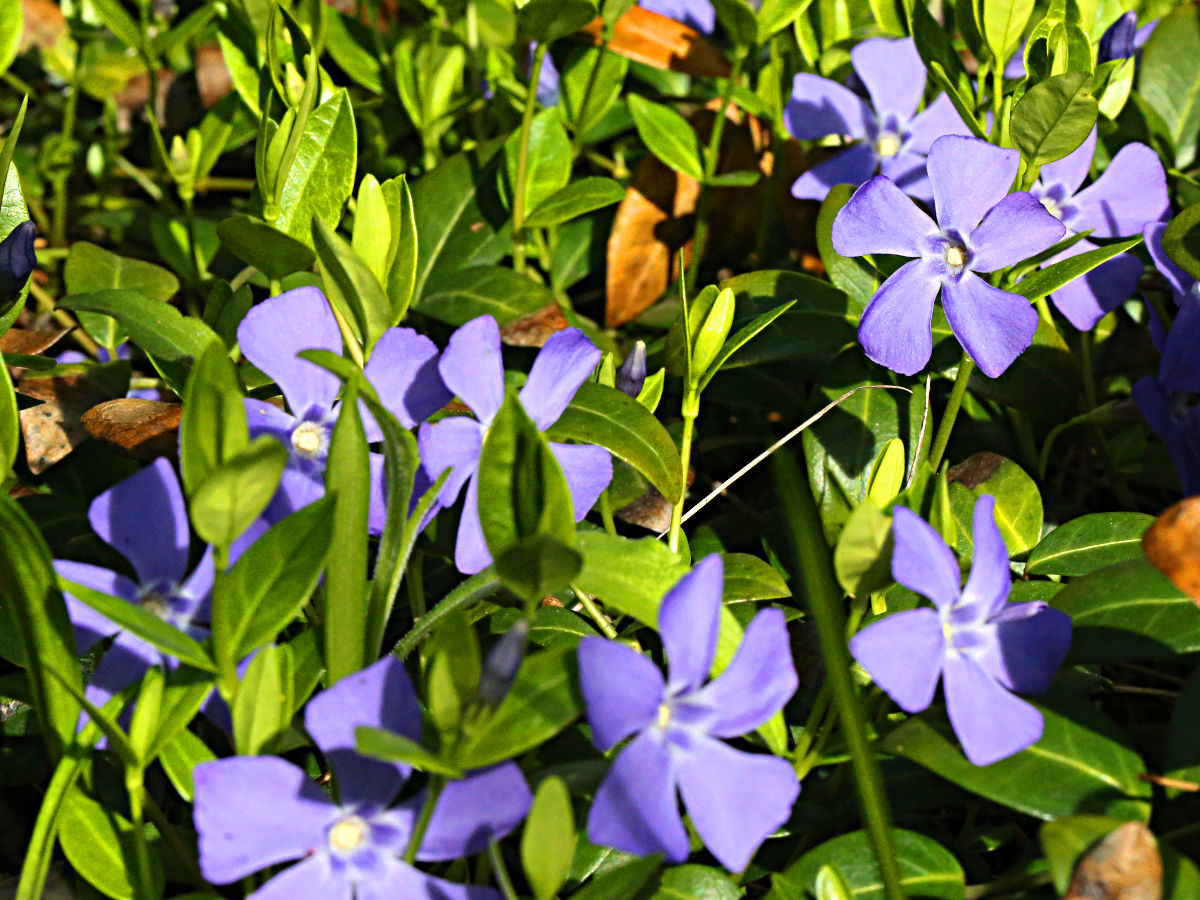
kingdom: Plantae
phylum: Tracheophyta
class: Magnoliopsida
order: Gentianales
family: Apocynaceae
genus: Vinca
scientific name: Vinca minor
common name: Lesser periwinkle
